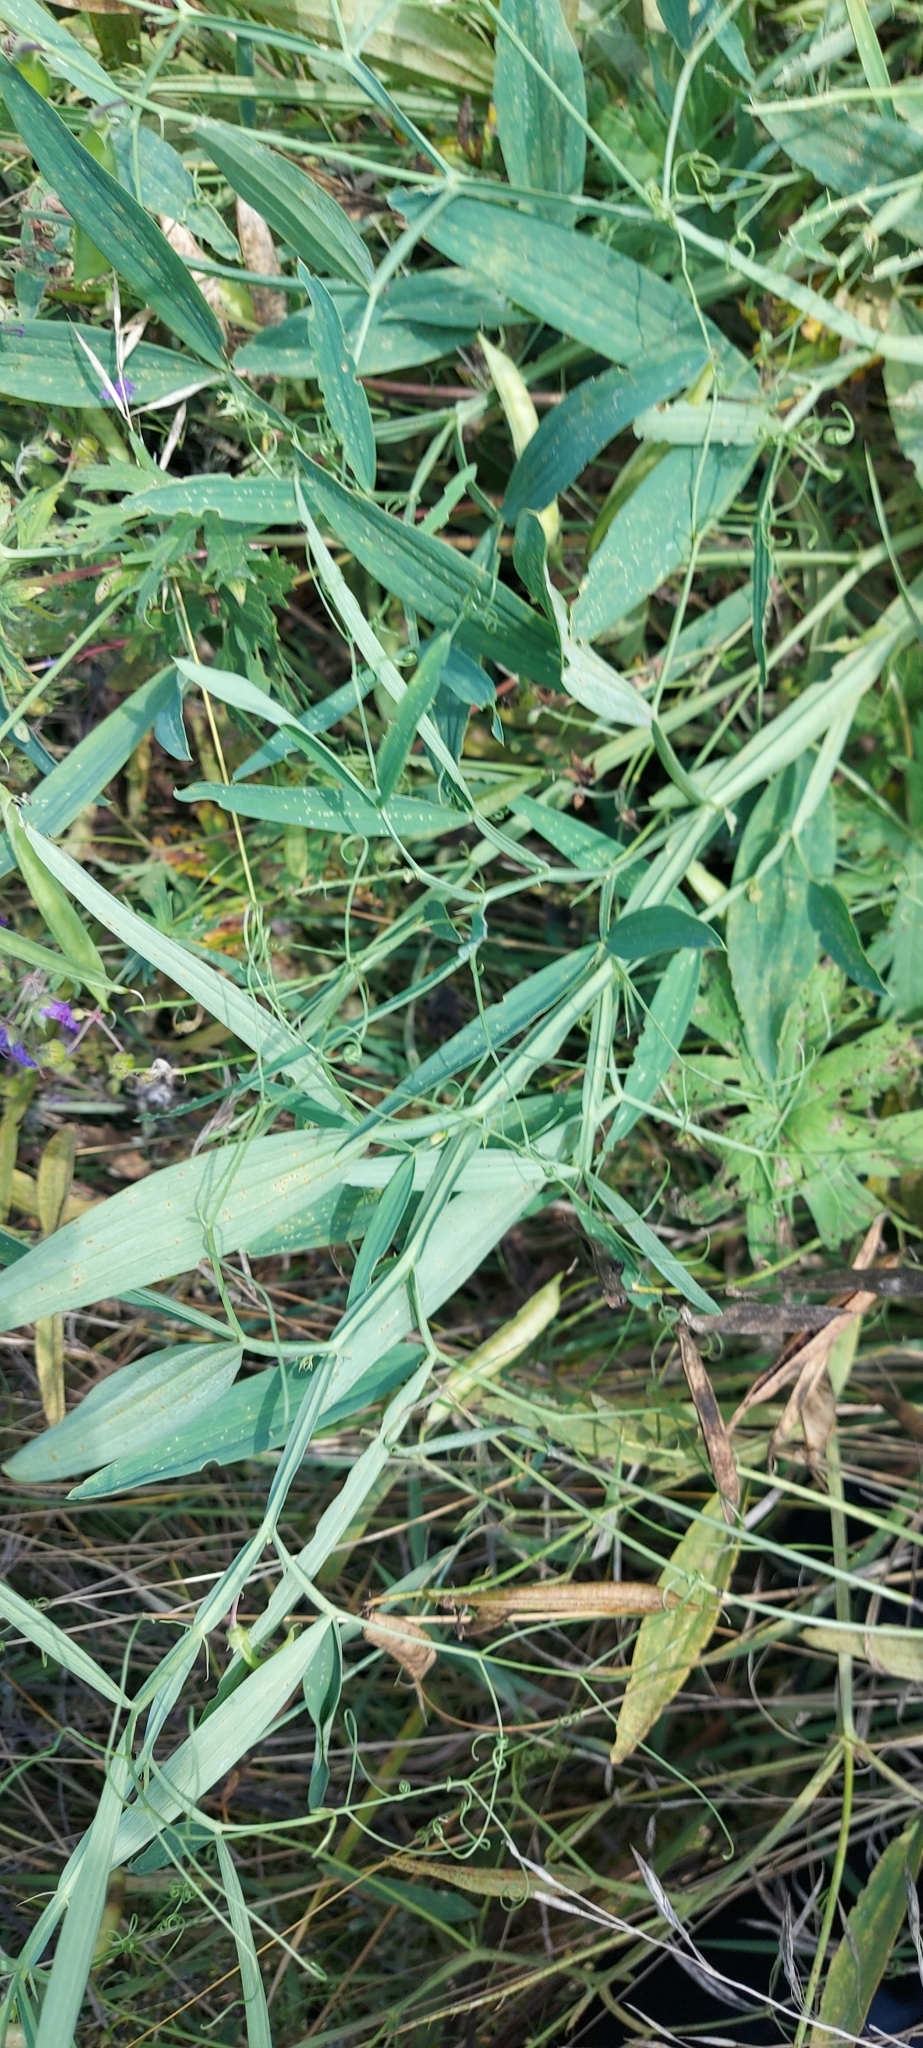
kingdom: Plantae
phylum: Tracheophyta
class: Magnoliopsida
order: Fabales
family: Fabaceae
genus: Lathyrus
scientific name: Lathyrus sylvestris
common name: Flat pea
